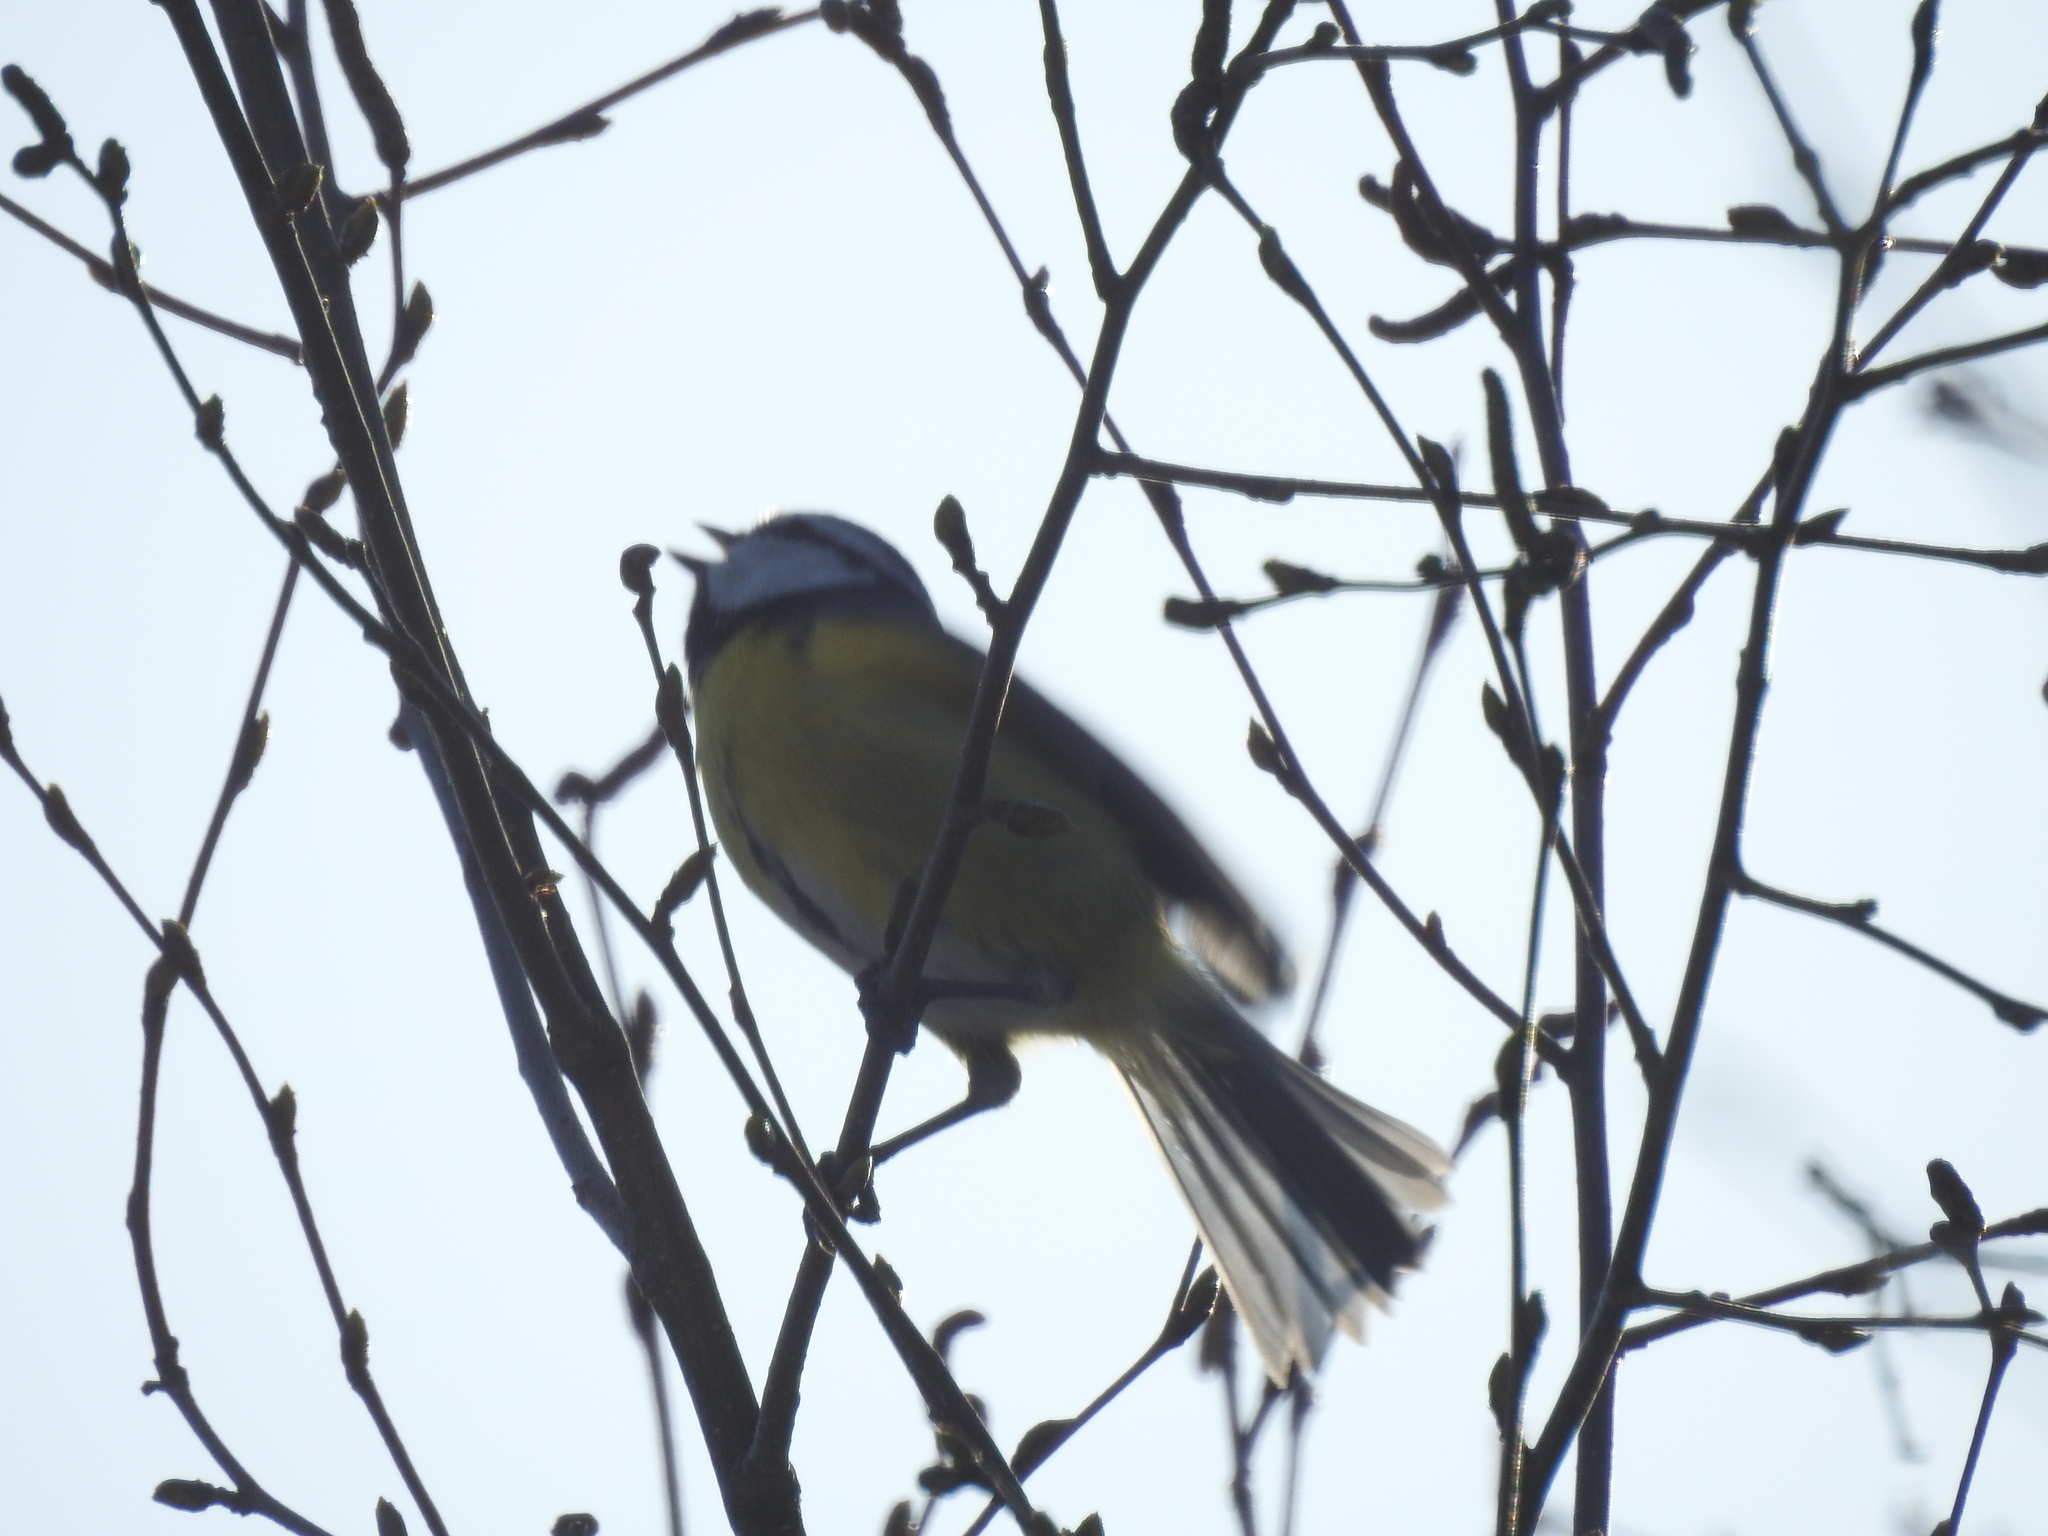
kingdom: Animalia
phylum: Chordata
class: Aves
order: Passeriformes
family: Paridae
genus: Cyanistes
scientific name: Cyanistes caeruleus
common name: Eurasian blue tit
